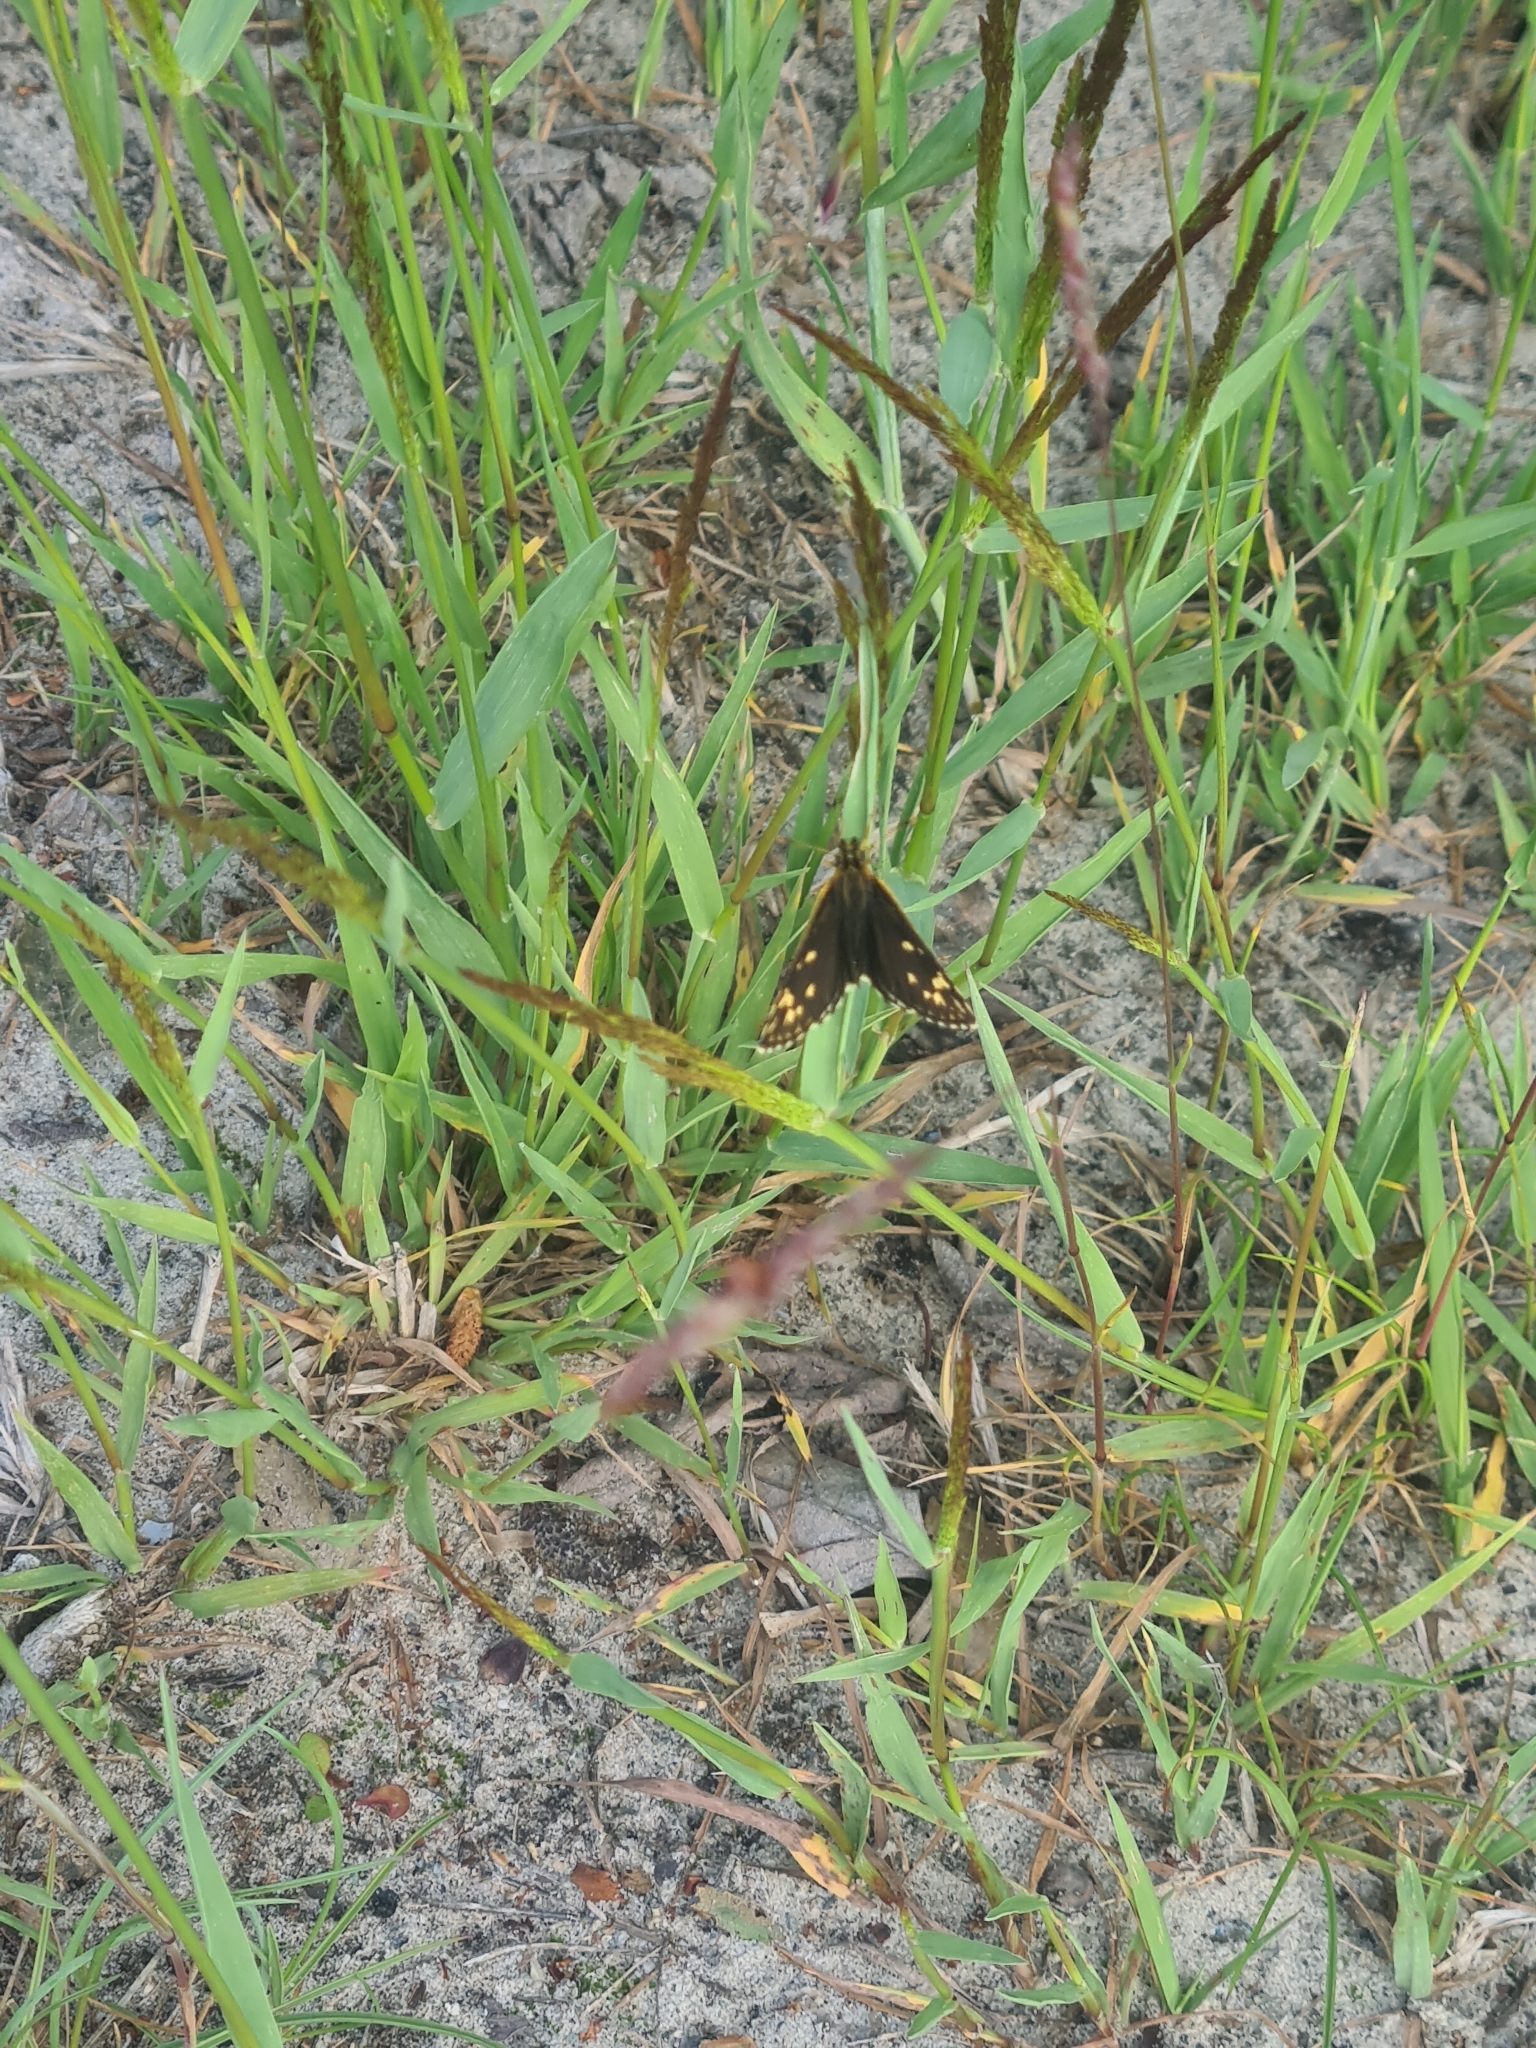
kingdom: Animalia
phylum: Arthropoda
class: Insecta
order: Lepidoptera
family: Hesperiidae
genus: Heteropterus
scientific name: Heteropterus morpheus
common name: Large chequered skipper
